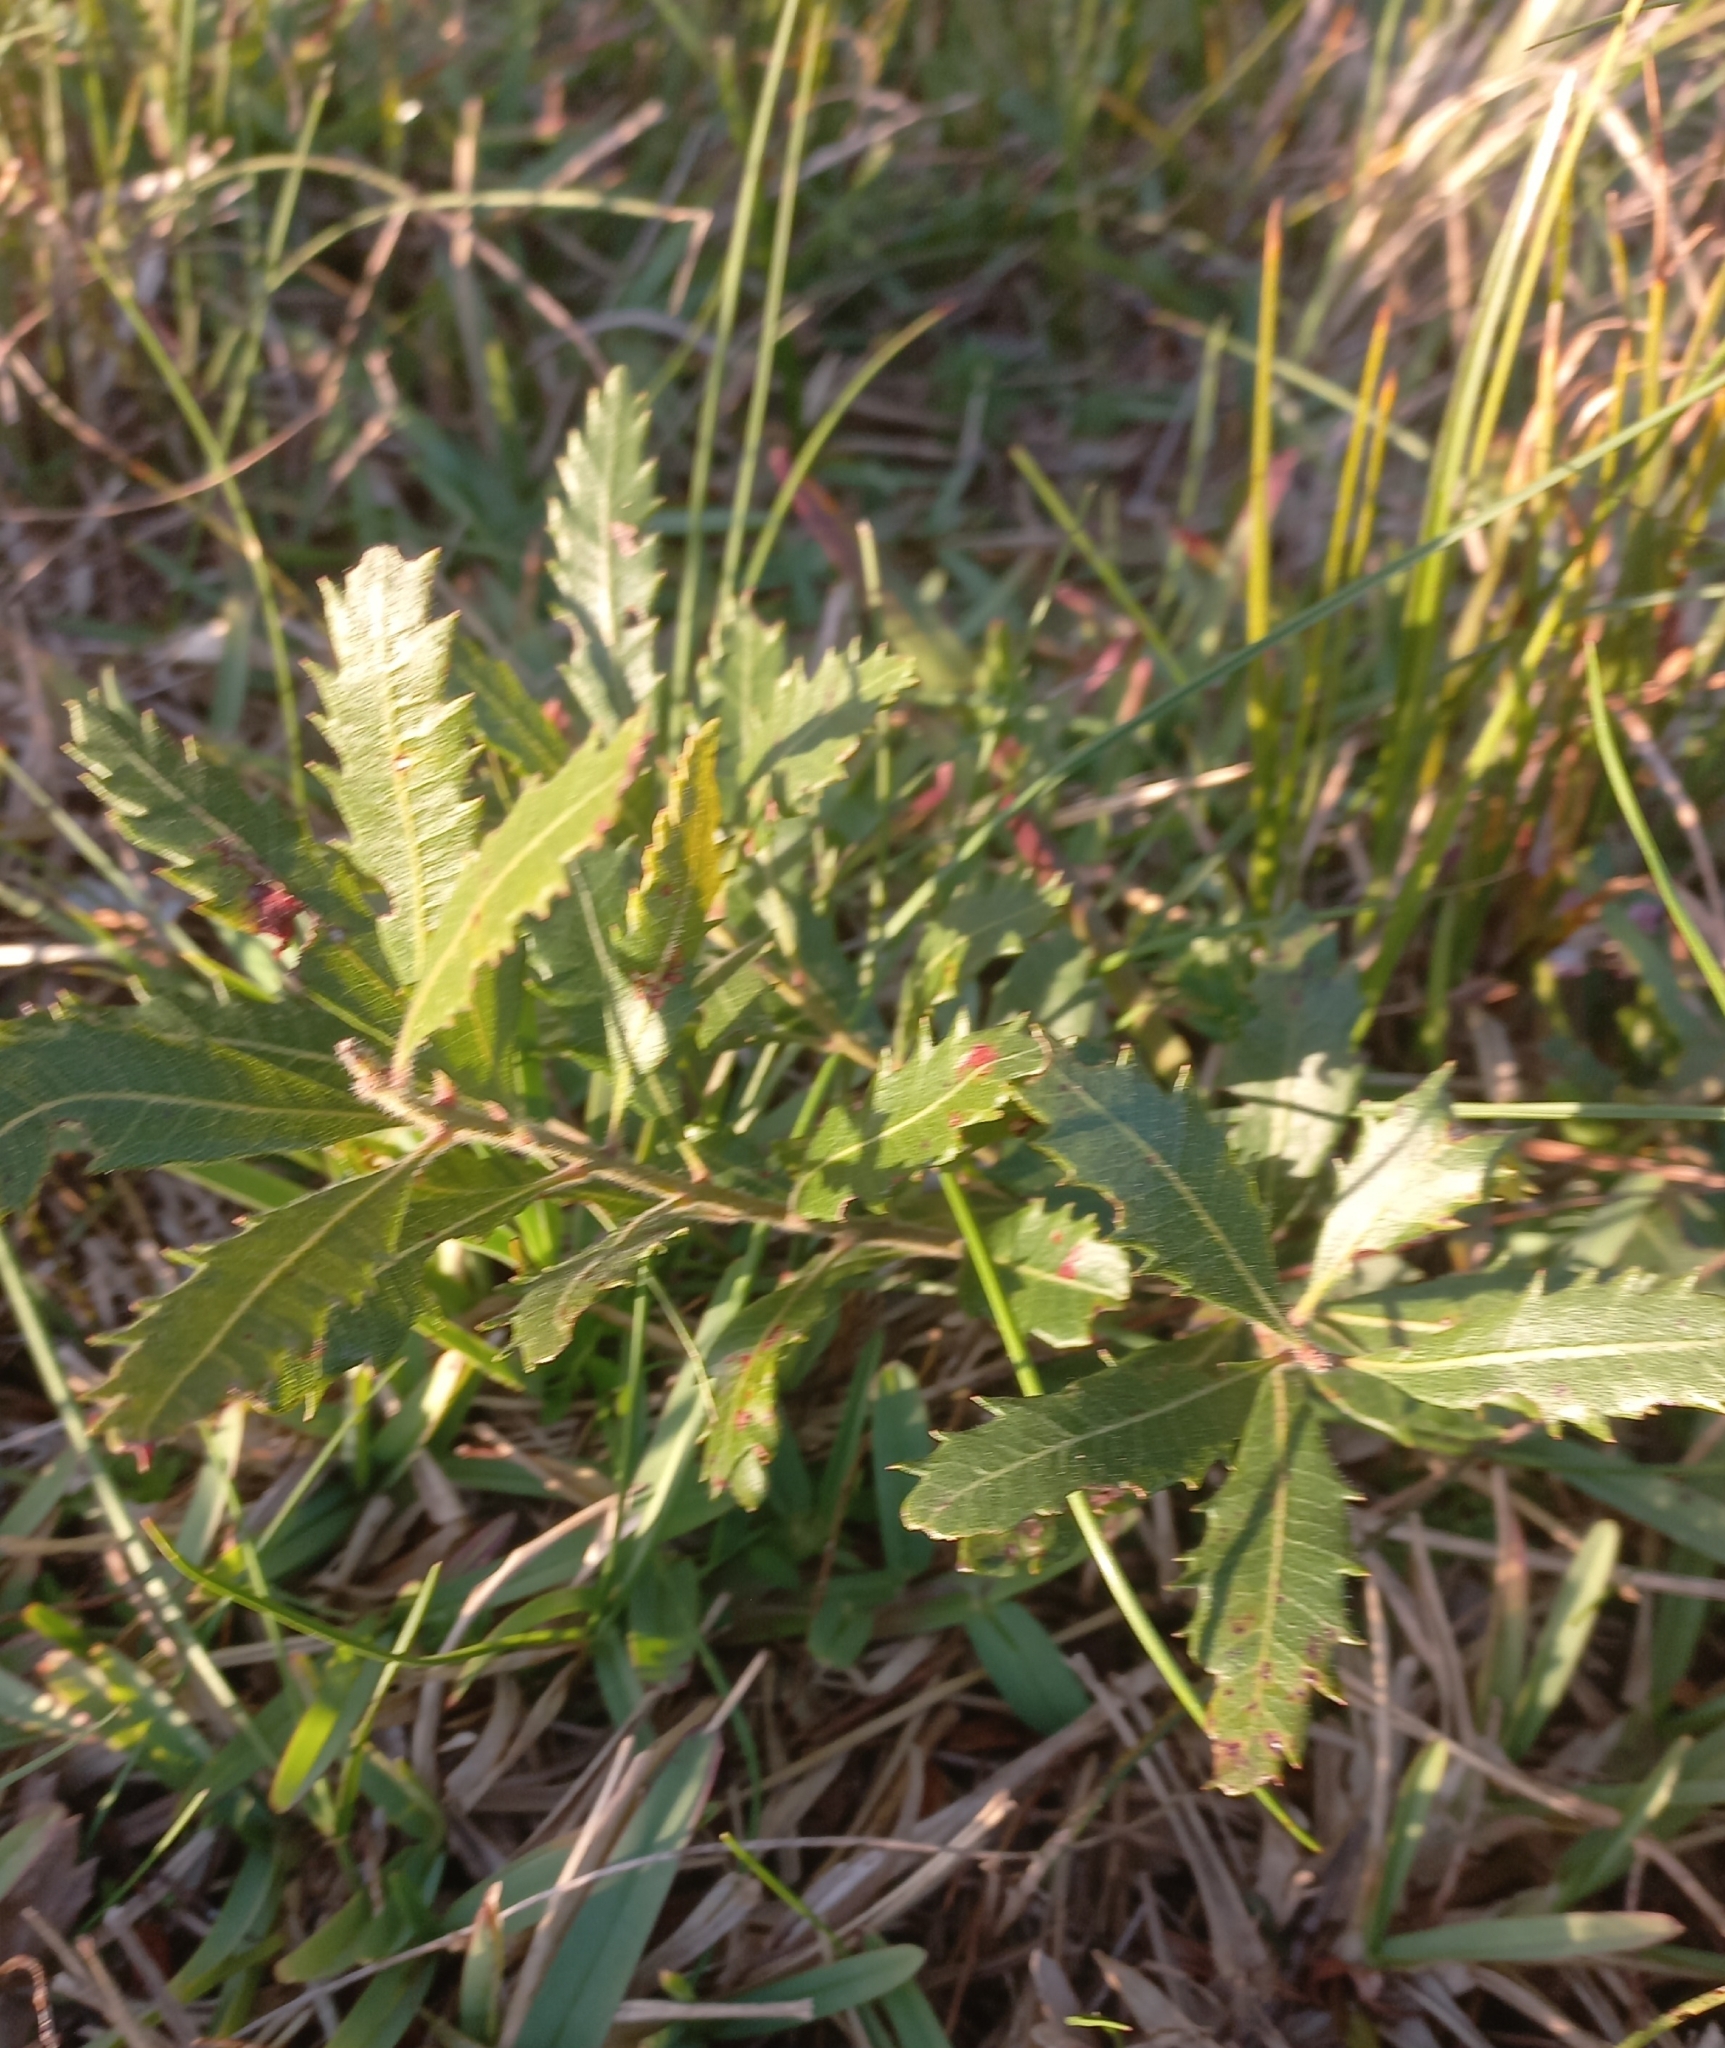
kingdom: Plantae
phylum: Tracheophyta
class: Magnoliopsida
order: Fagales
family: Myricaceae
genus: Morella
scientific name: Morella quercifolia
